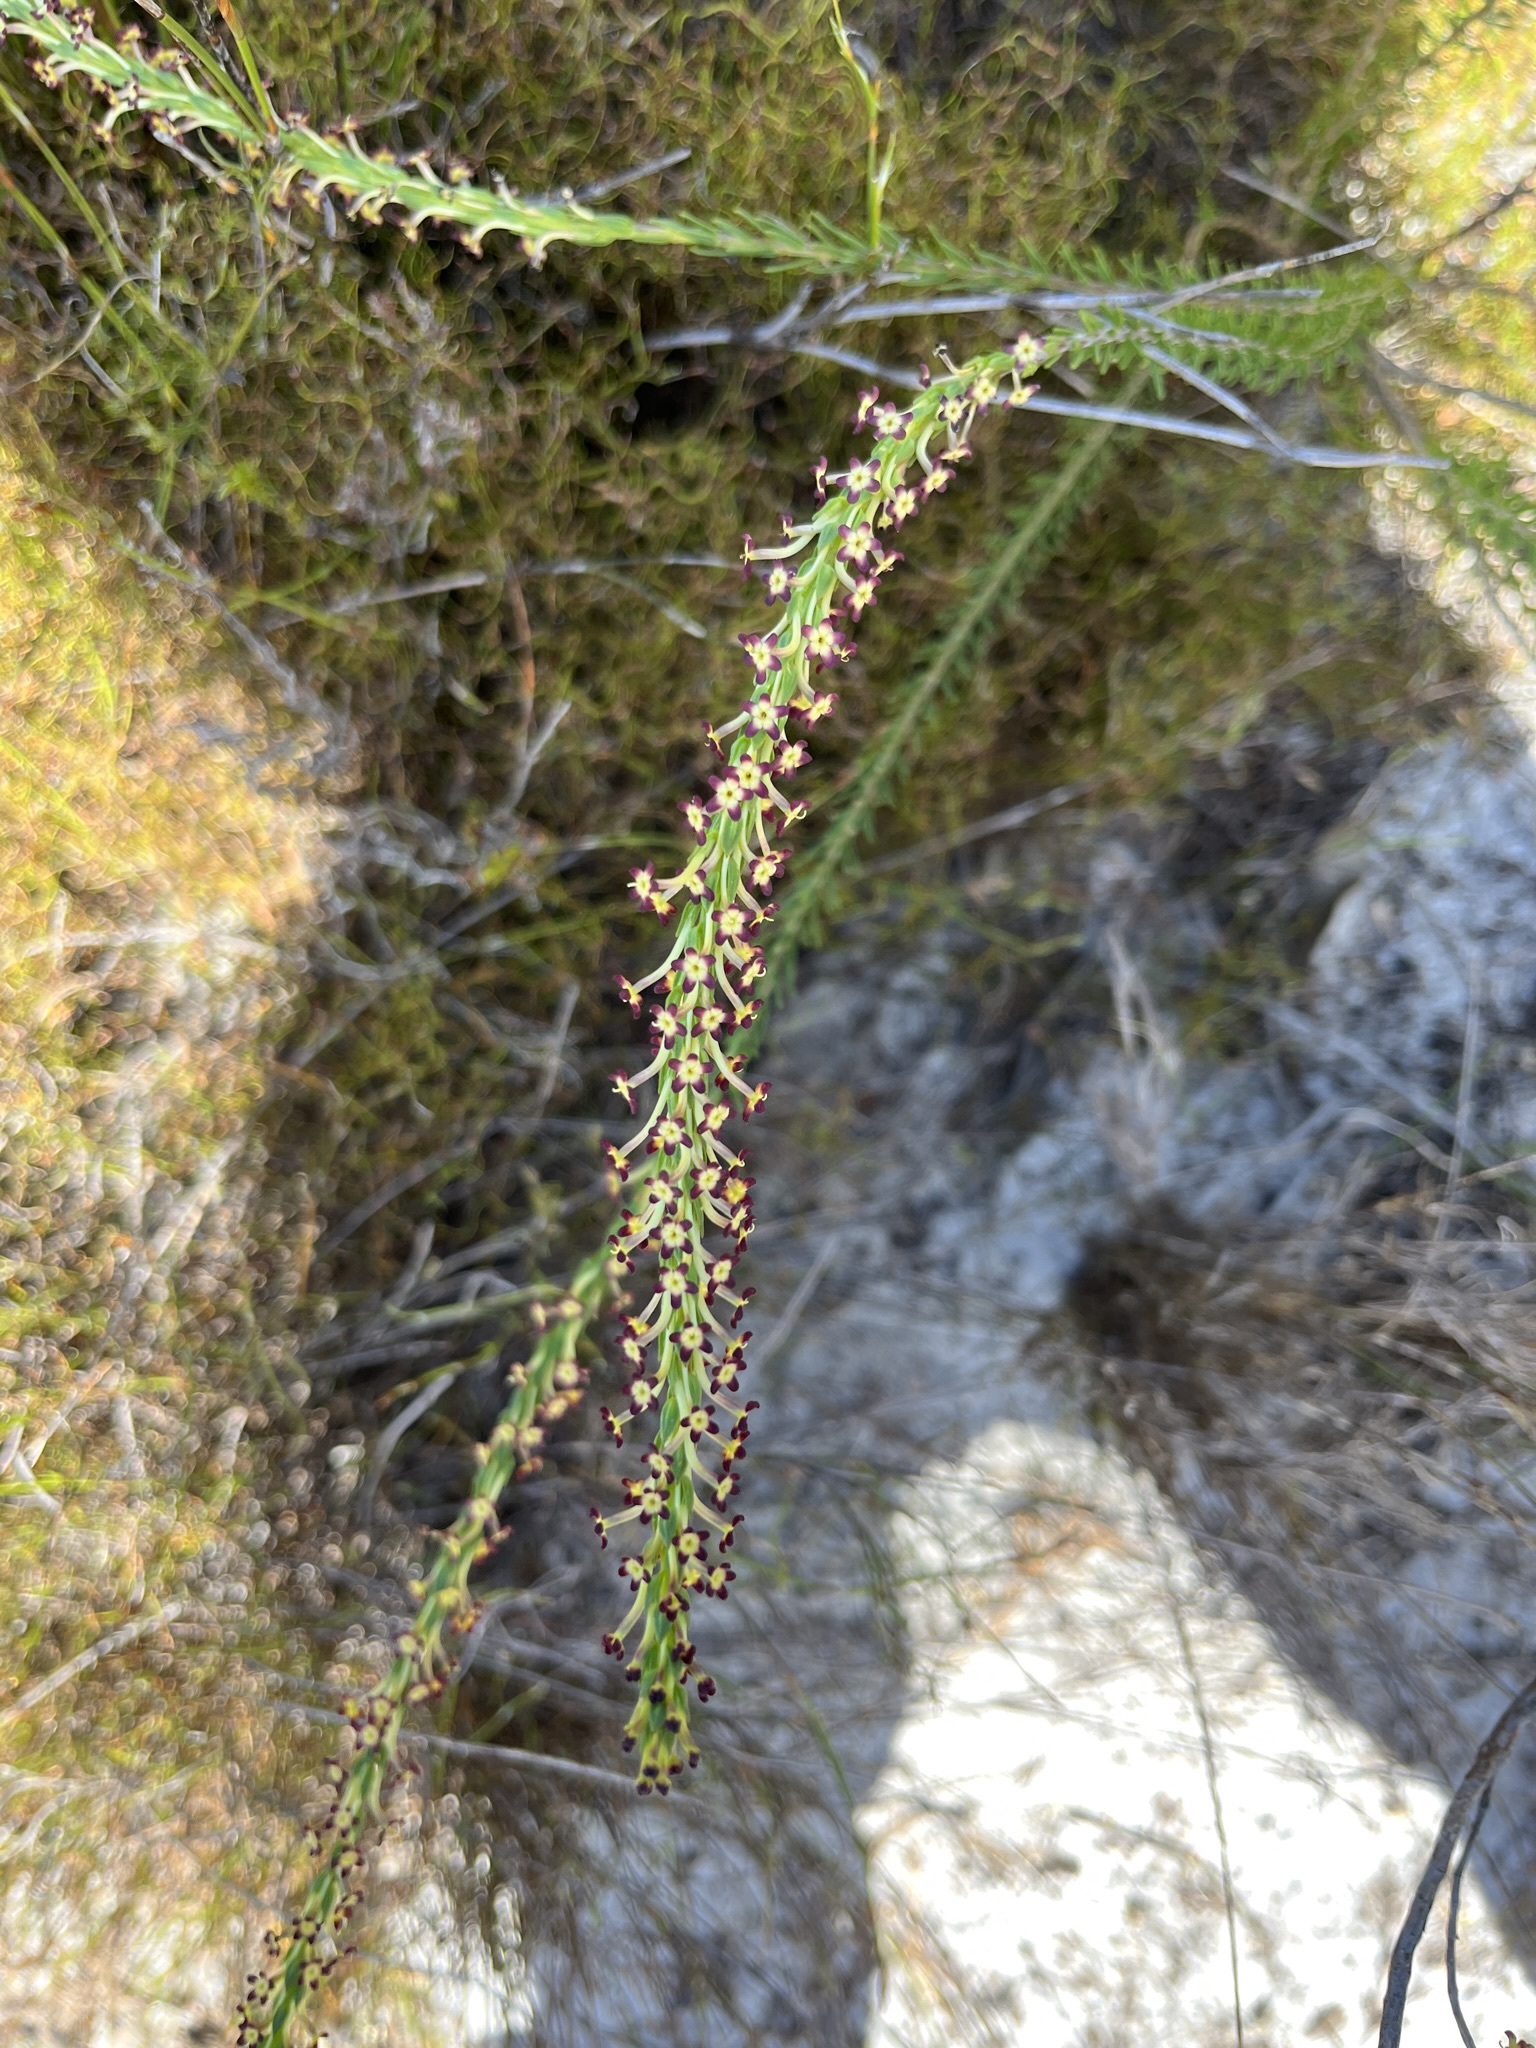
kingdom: Plantae
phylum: Tracheophyta
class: Magnoliopsida
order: Lamiales
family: Scrophulariaceae
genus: Microdon
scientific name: Microdon dubius
